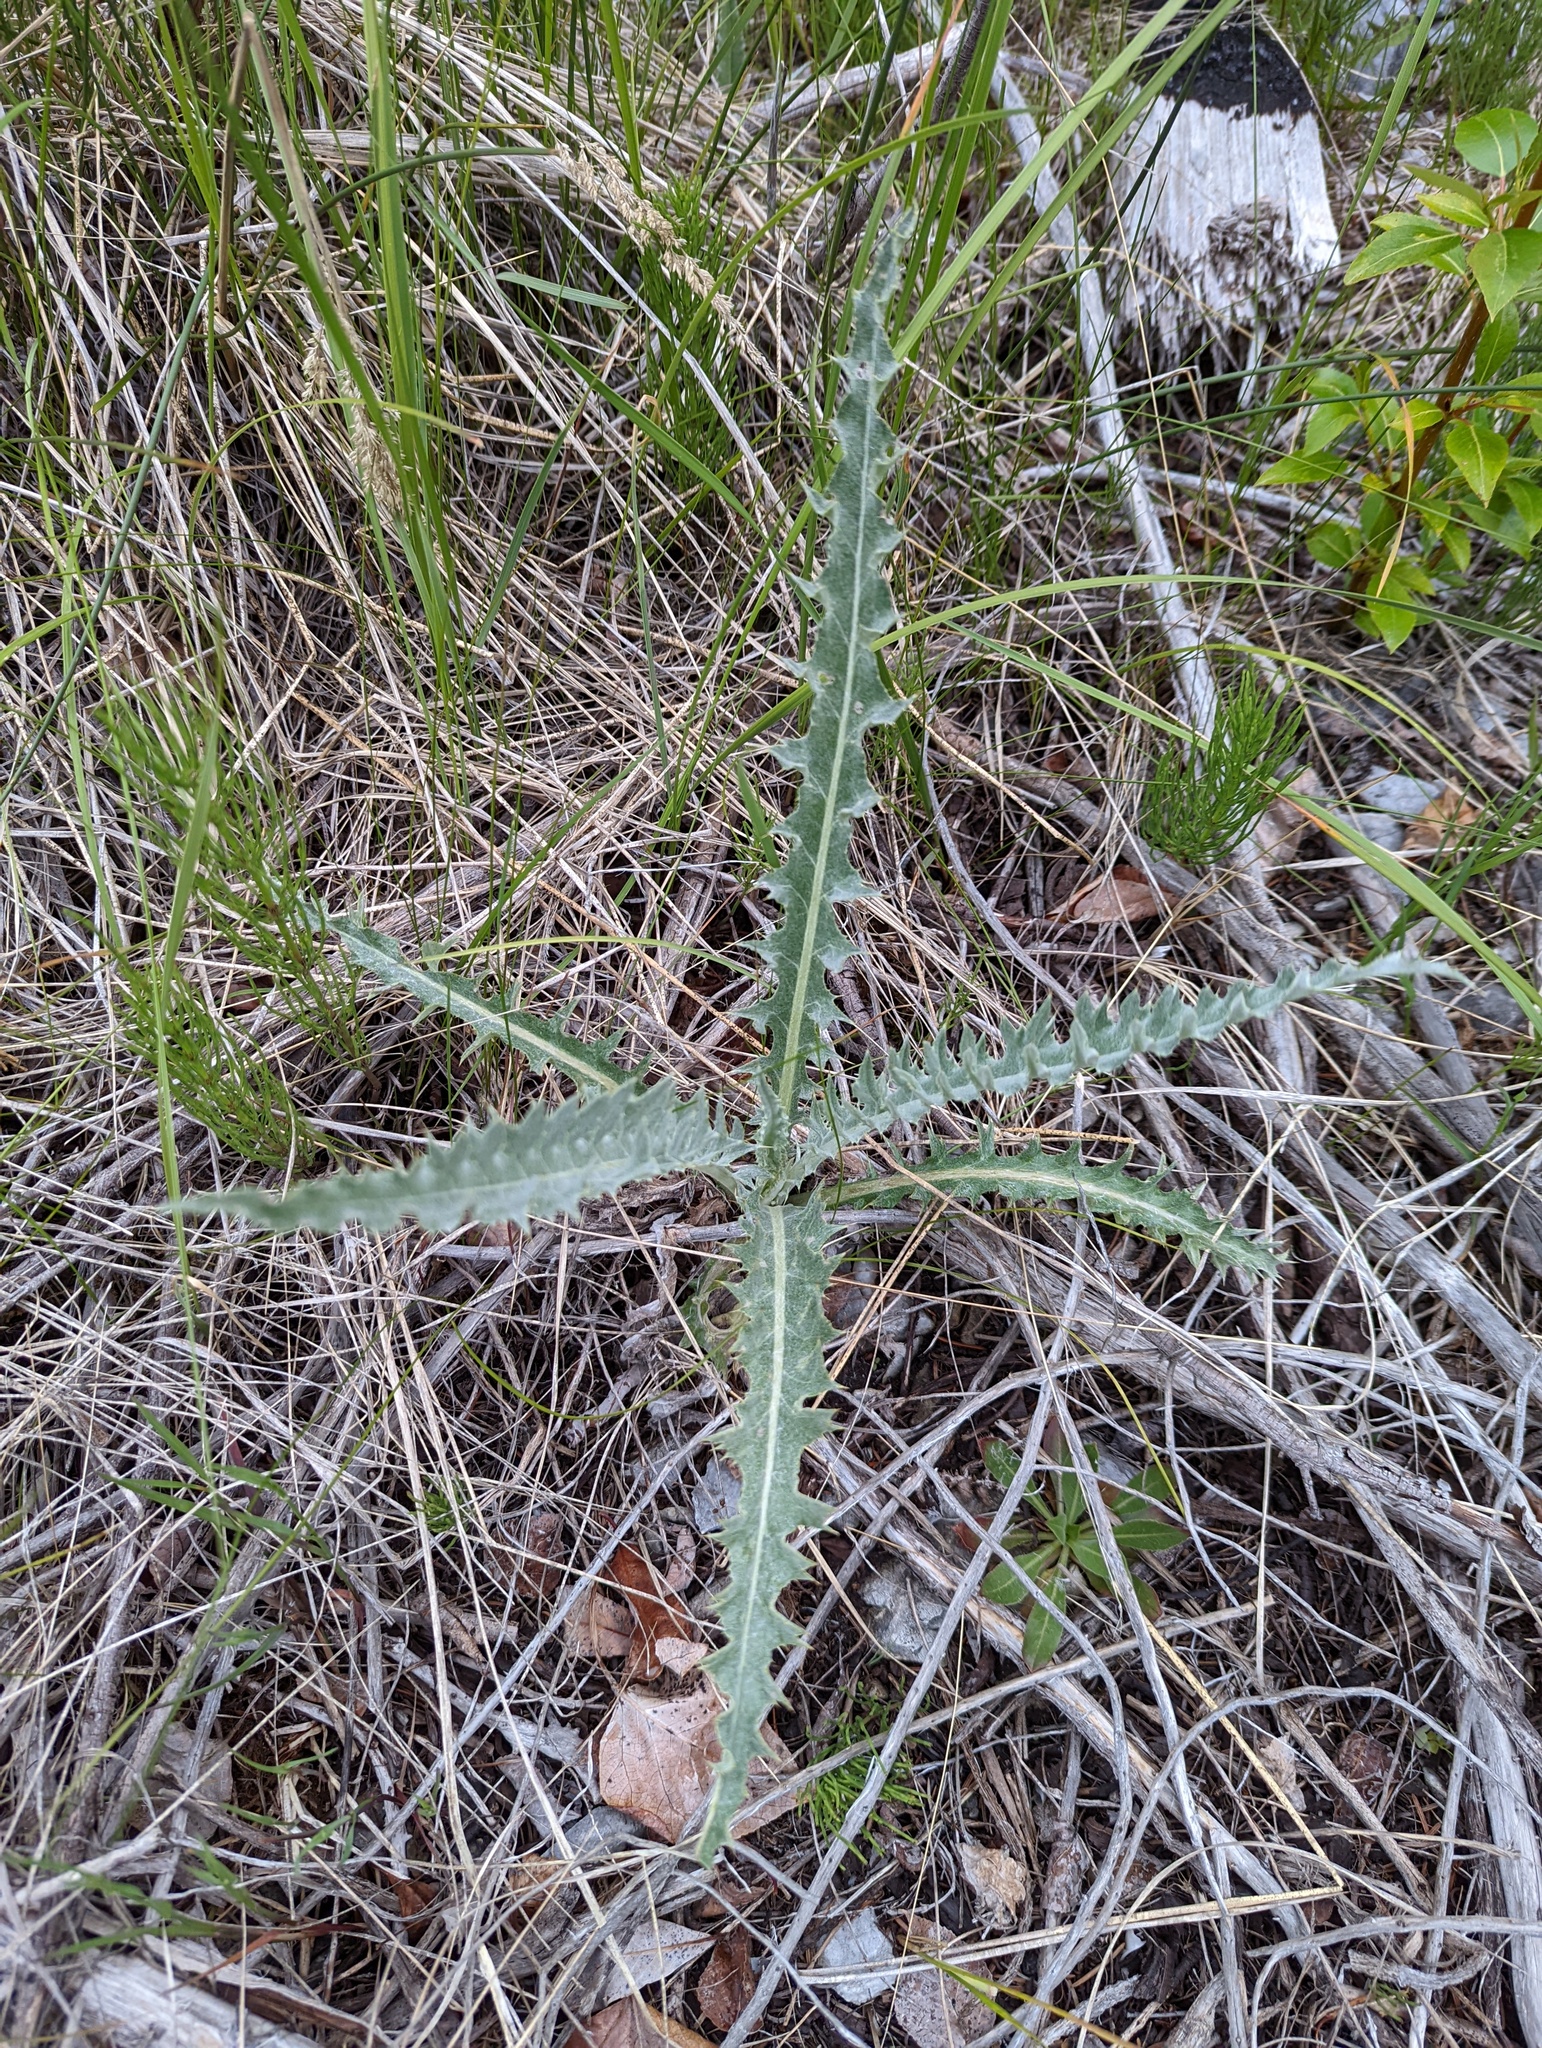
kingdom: Plantae
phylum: Tracheophyta
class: Magnoliopsida
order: Asterales
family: Asteraceae
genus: Cirsium
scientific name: Cirsium undulatum
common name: Pasture thistle
